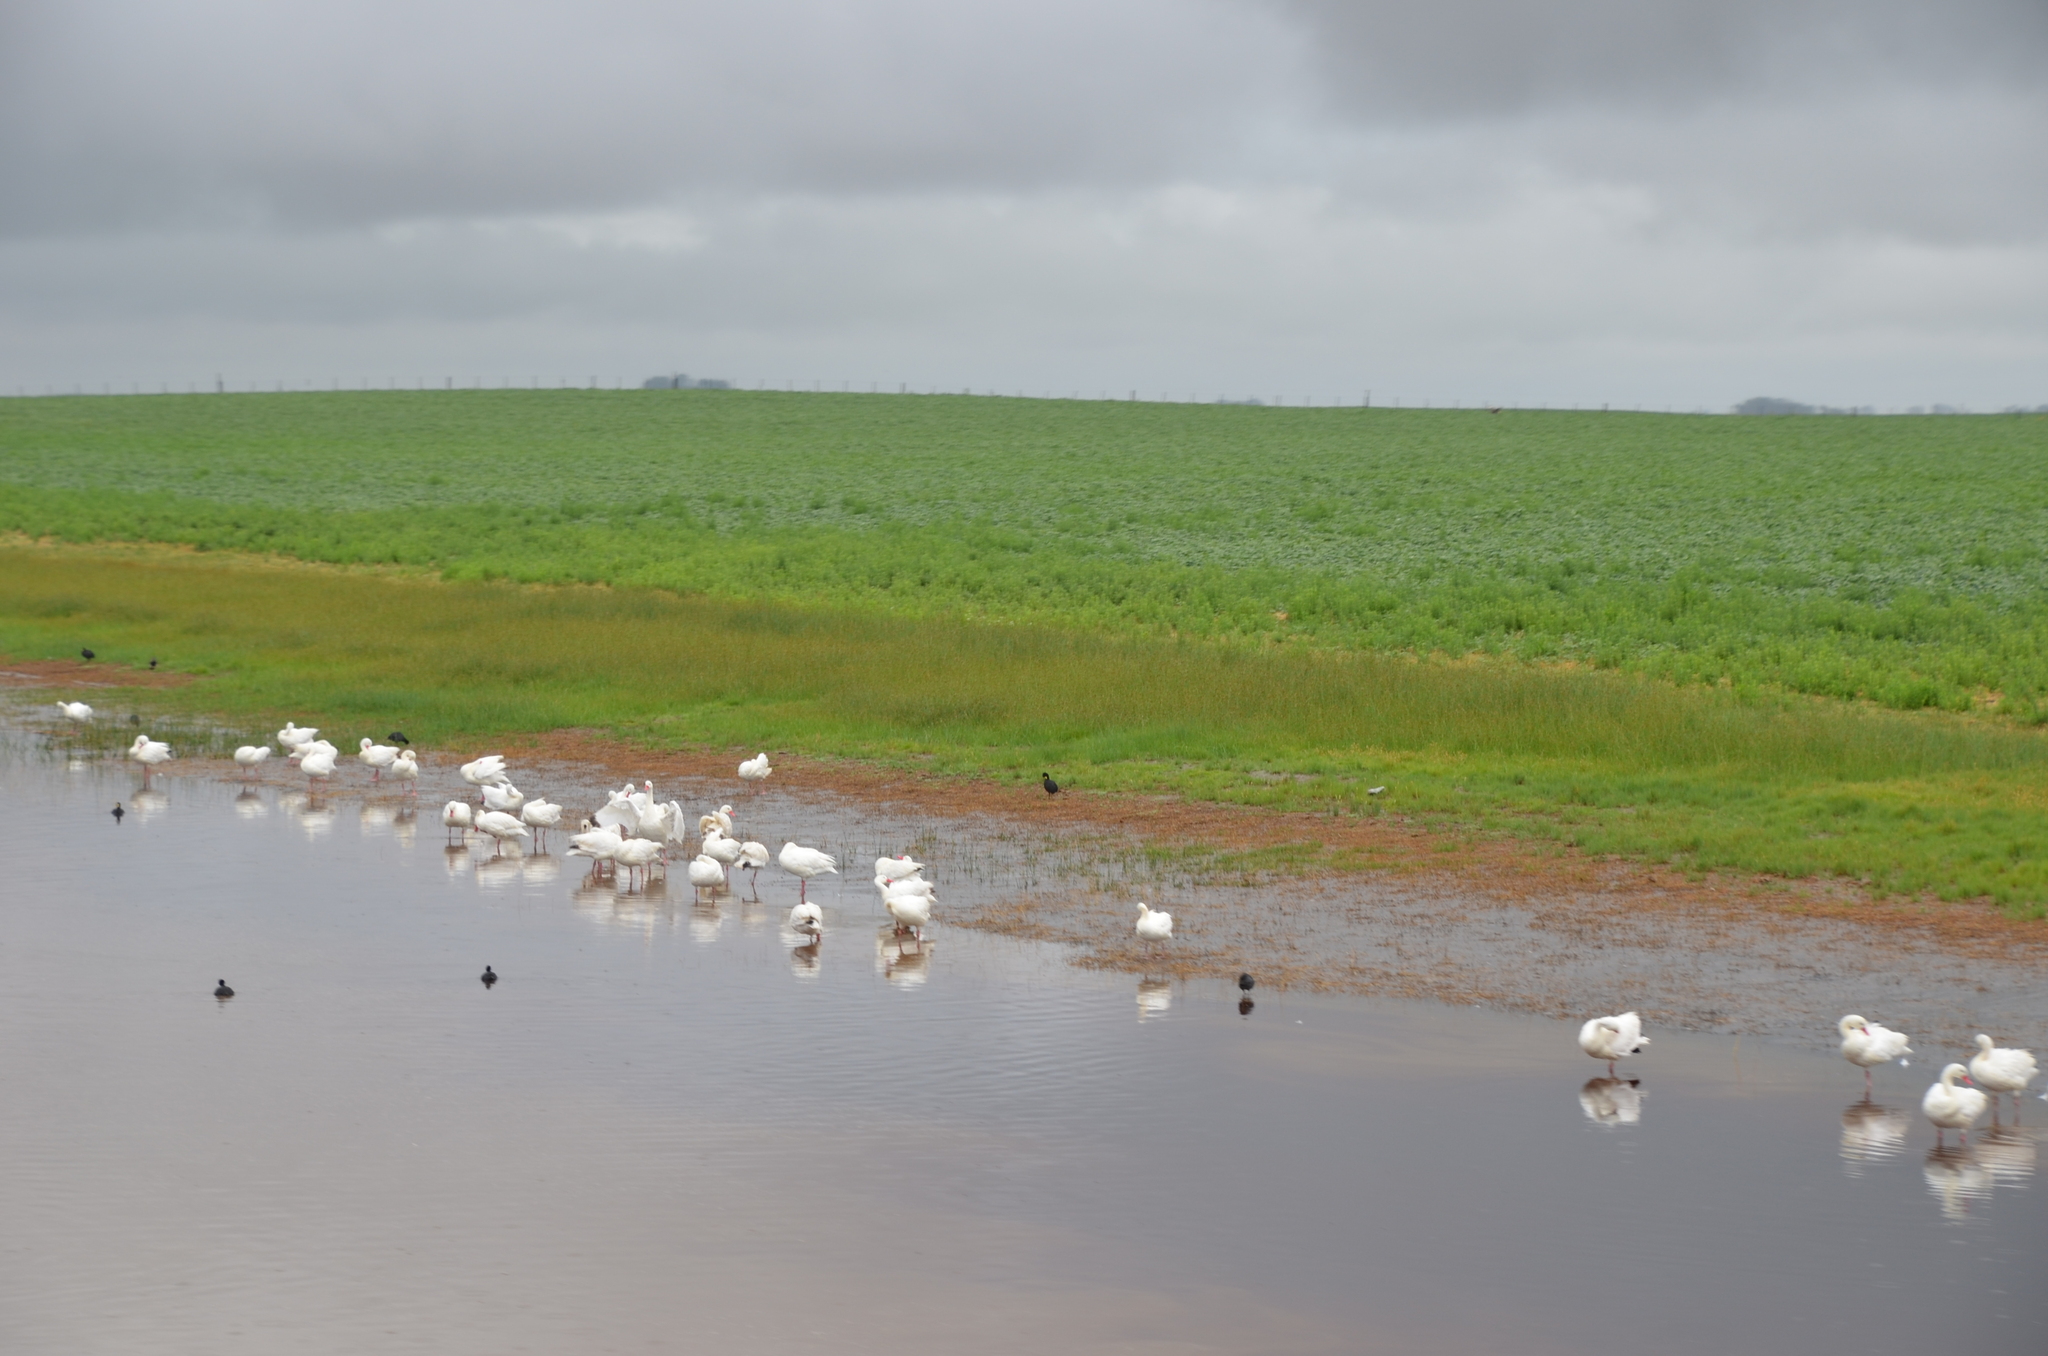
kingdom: Animalia
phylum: Chordata
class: Aves
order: Anseriformes
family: Anatidae
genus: Coscoroba
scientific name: Coscoroba coscoroba
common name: Coscoroba swan
